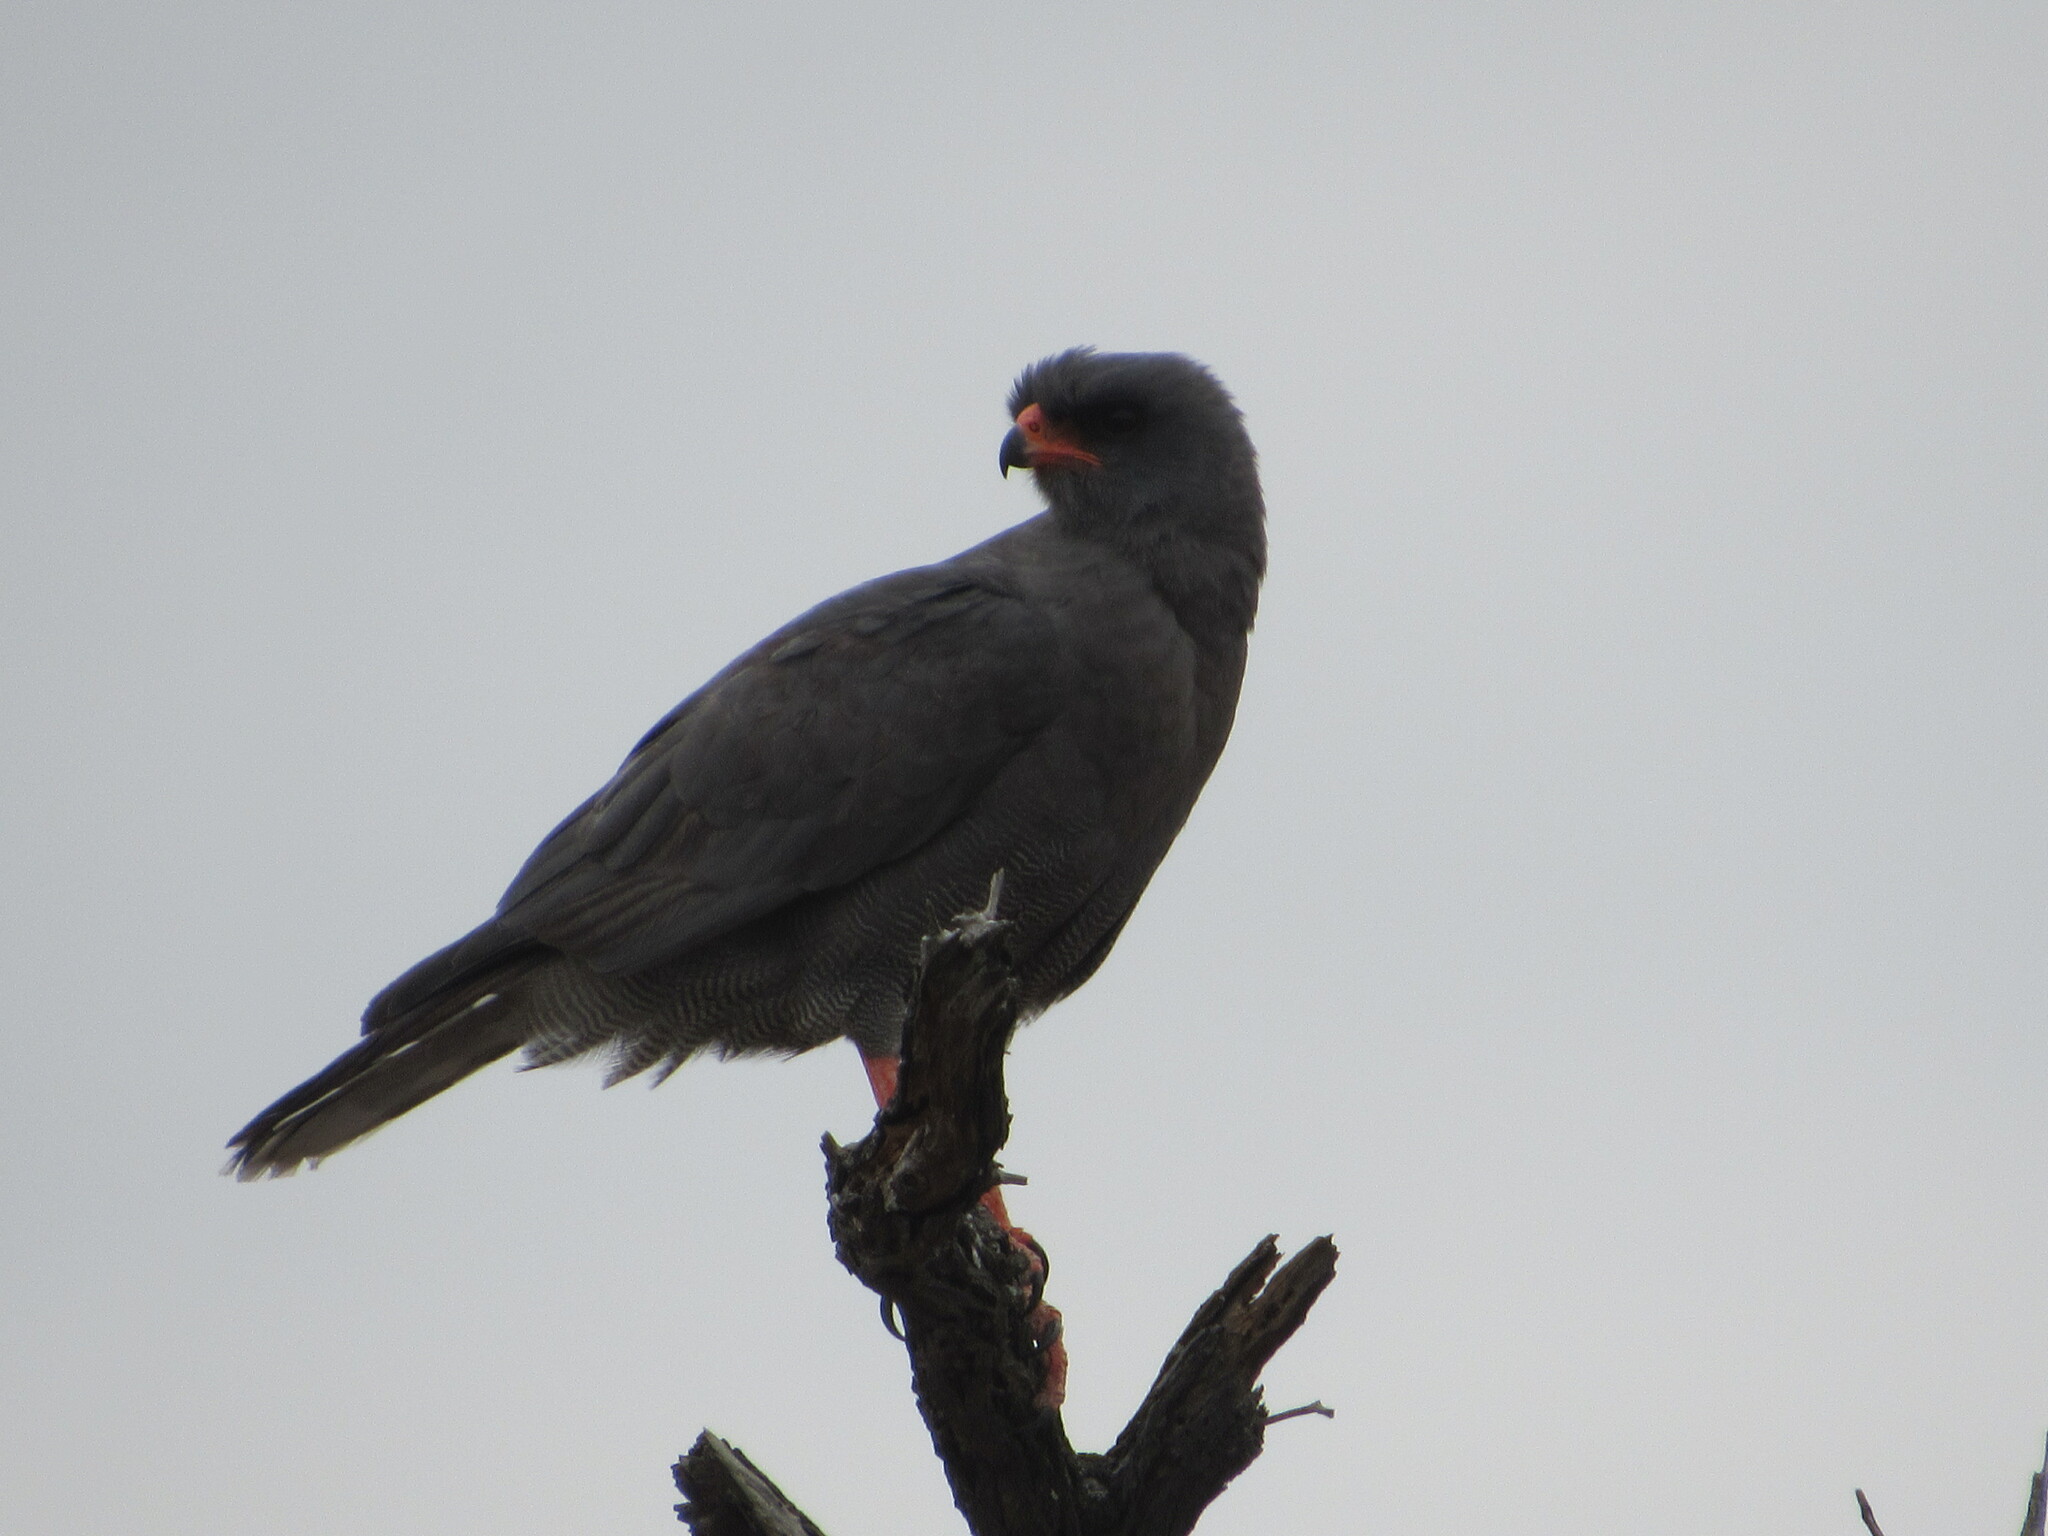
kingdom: Animalia
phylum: Chordata
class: Aves
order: Accipitriformes
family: Accipitridae
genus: Melierax
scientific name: Melierax metabates
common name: Dark chanting-goshawk
